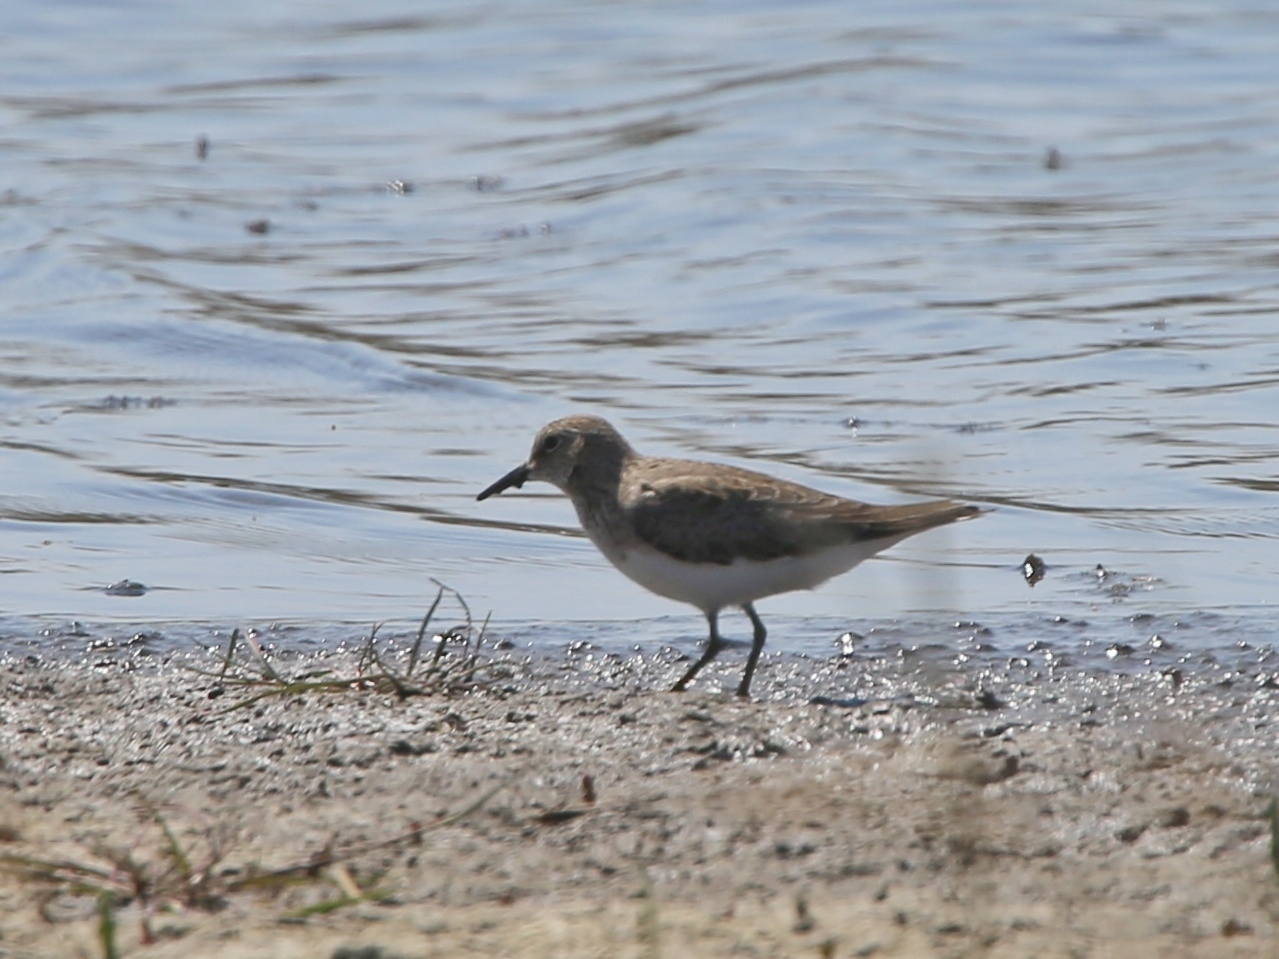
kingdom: Animalia
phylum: Chordata
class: Aves
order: Charadriiformes
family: Scolopacidae
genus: Calidris
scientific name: Calidris temminckii
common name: Temminck's stint
